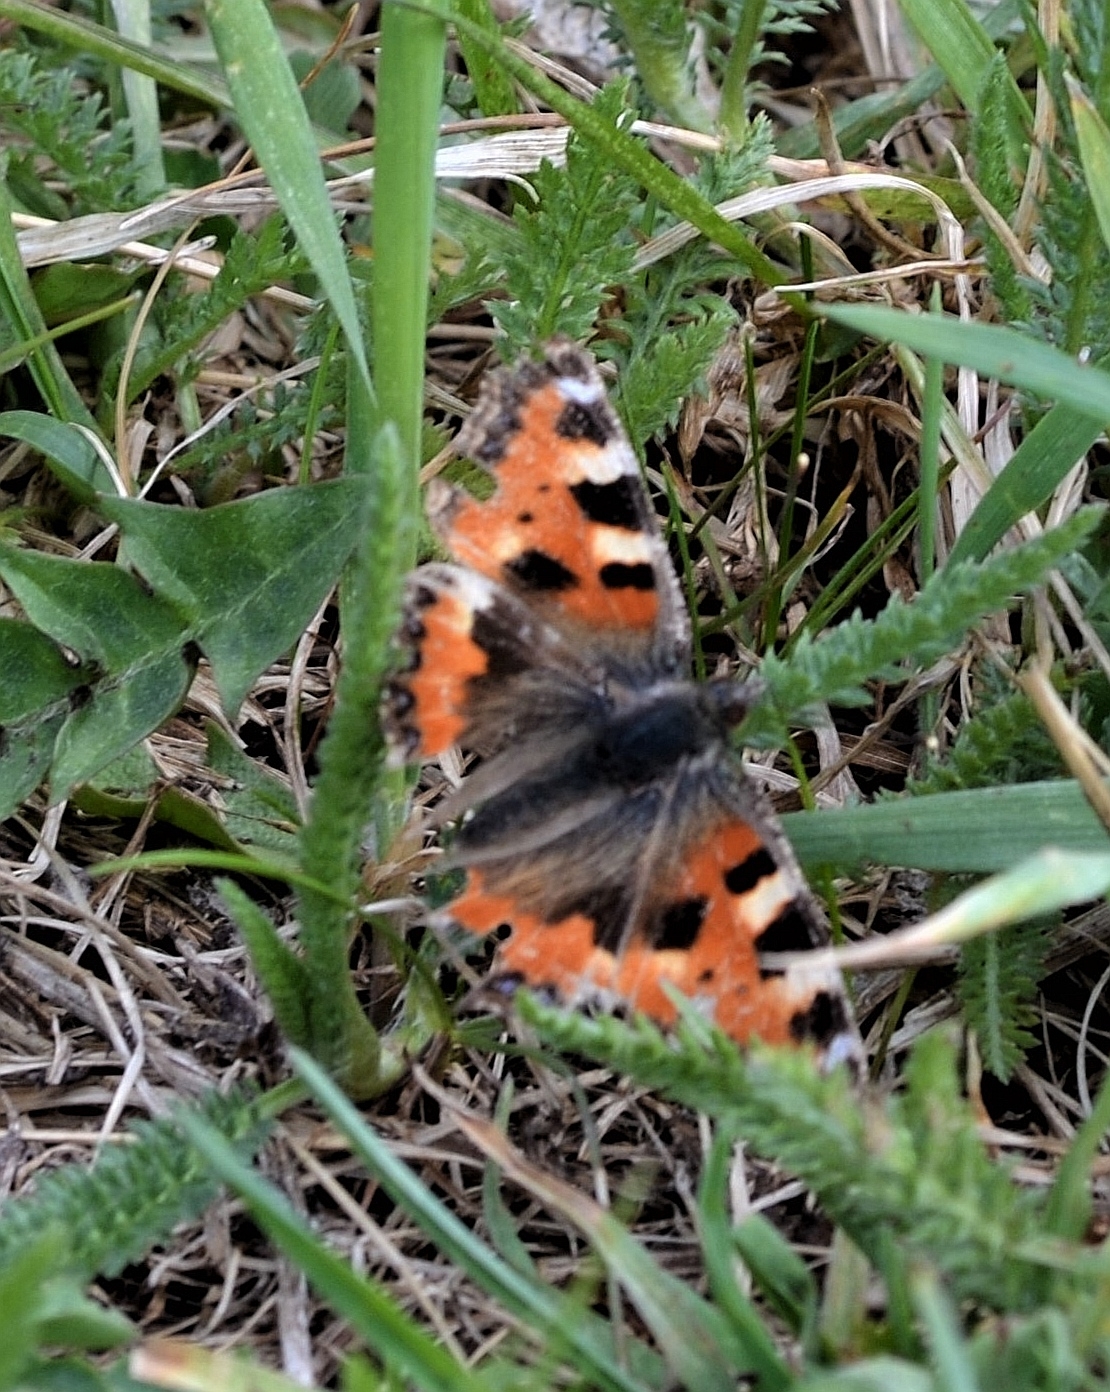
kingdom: Animalia
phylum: Arthropoda
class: Insecta
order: Lepidoptera
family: Nymphalidae
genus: Aglais
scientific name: Aglais urticae
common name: Small tortoiseshell
